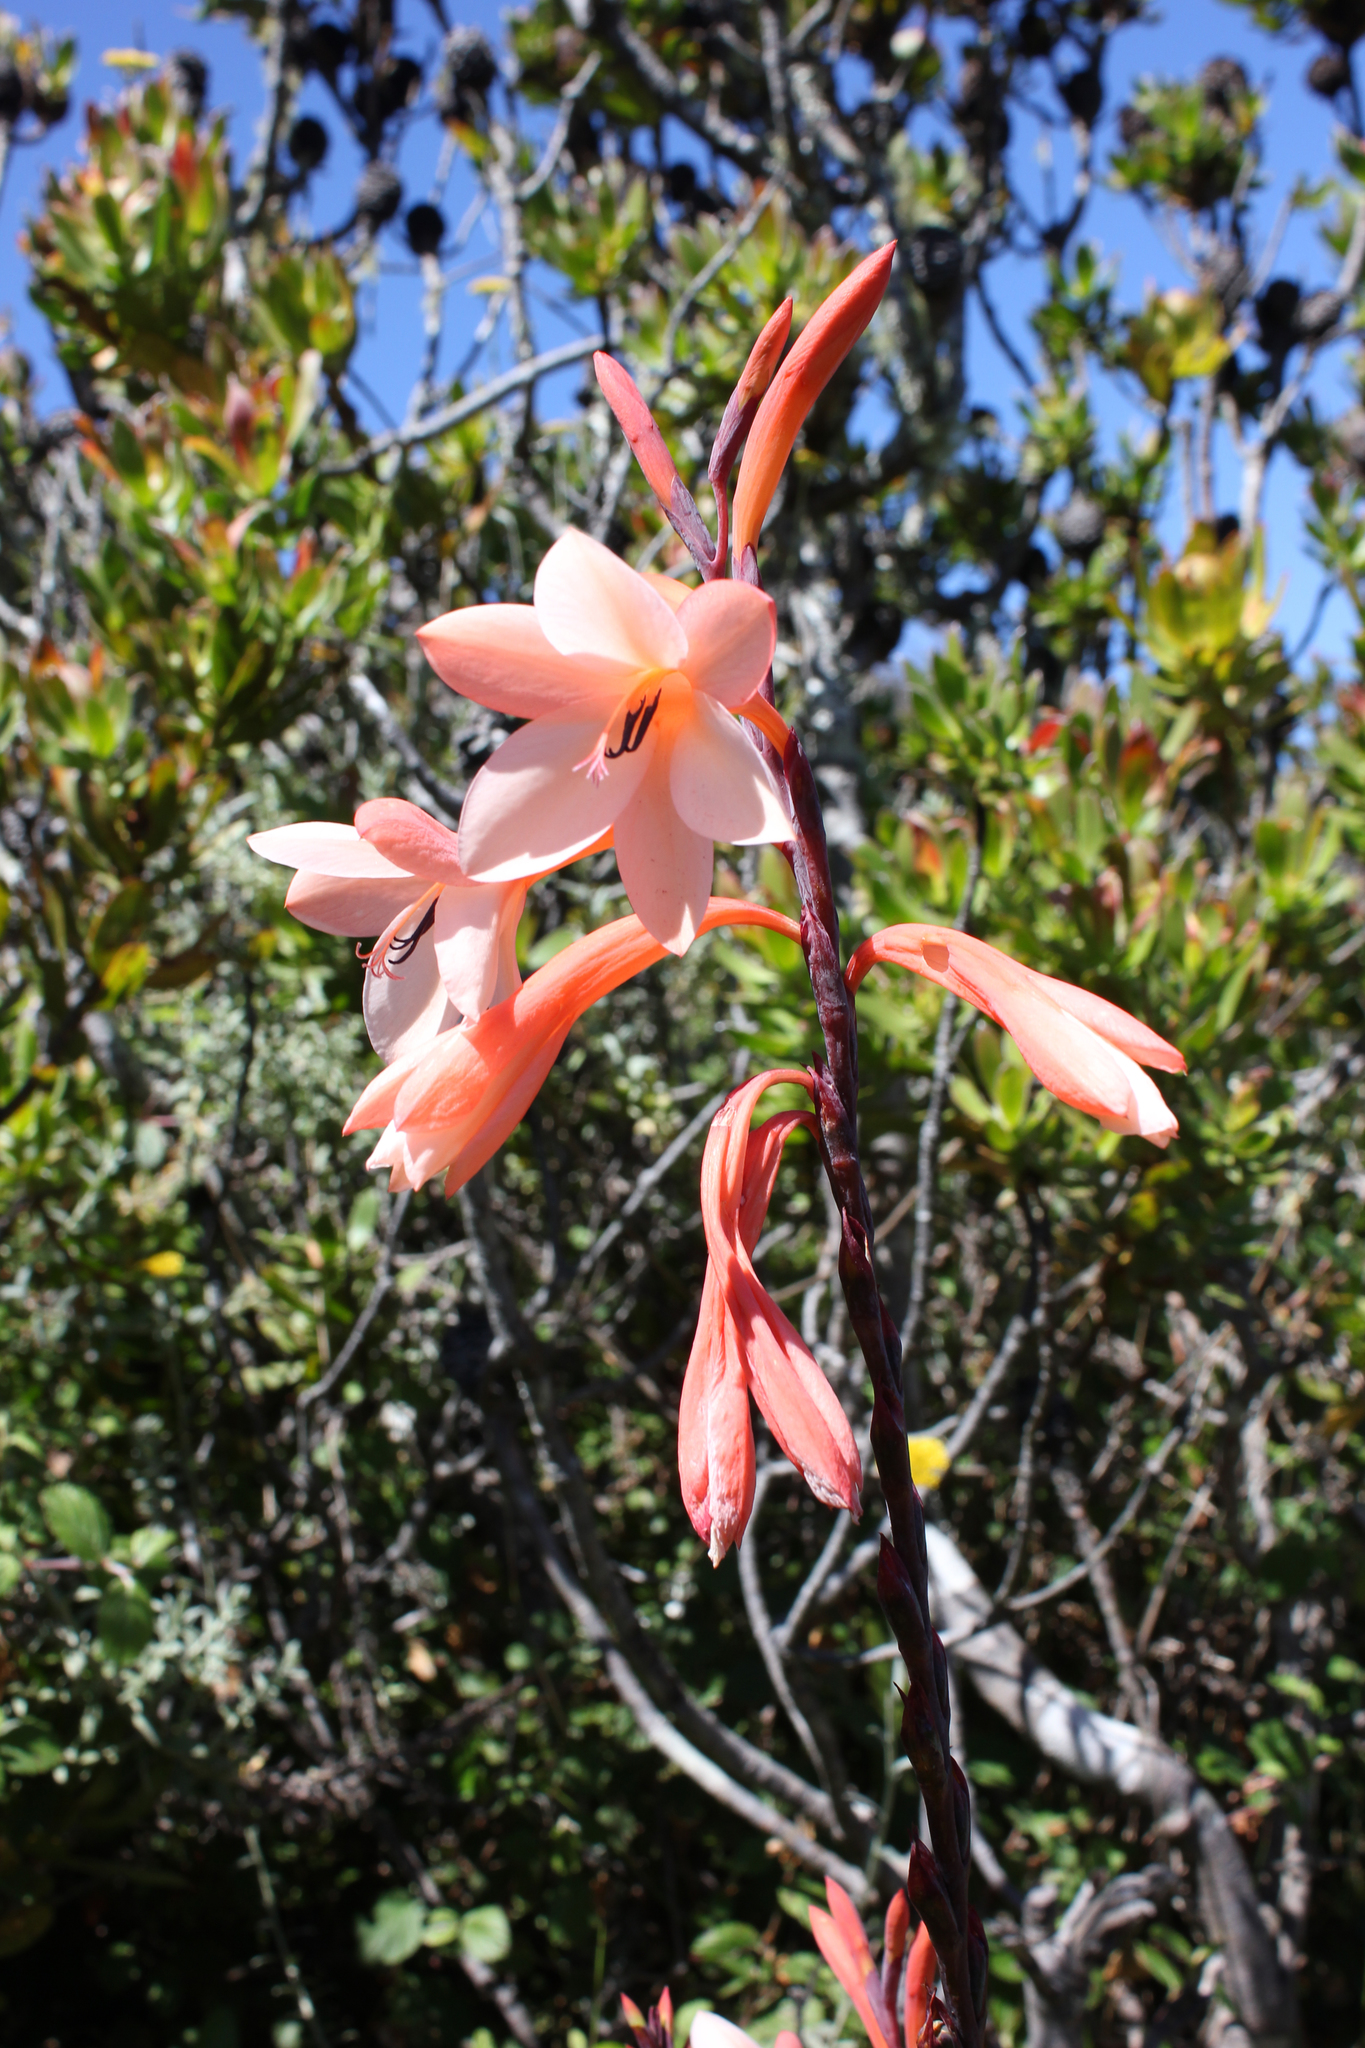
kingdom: Plantae
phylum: Tracheophyta
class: Liliopsida
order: Asparagales
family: Iridaceae
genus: Watsonia
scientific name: Watsonia tabularis
